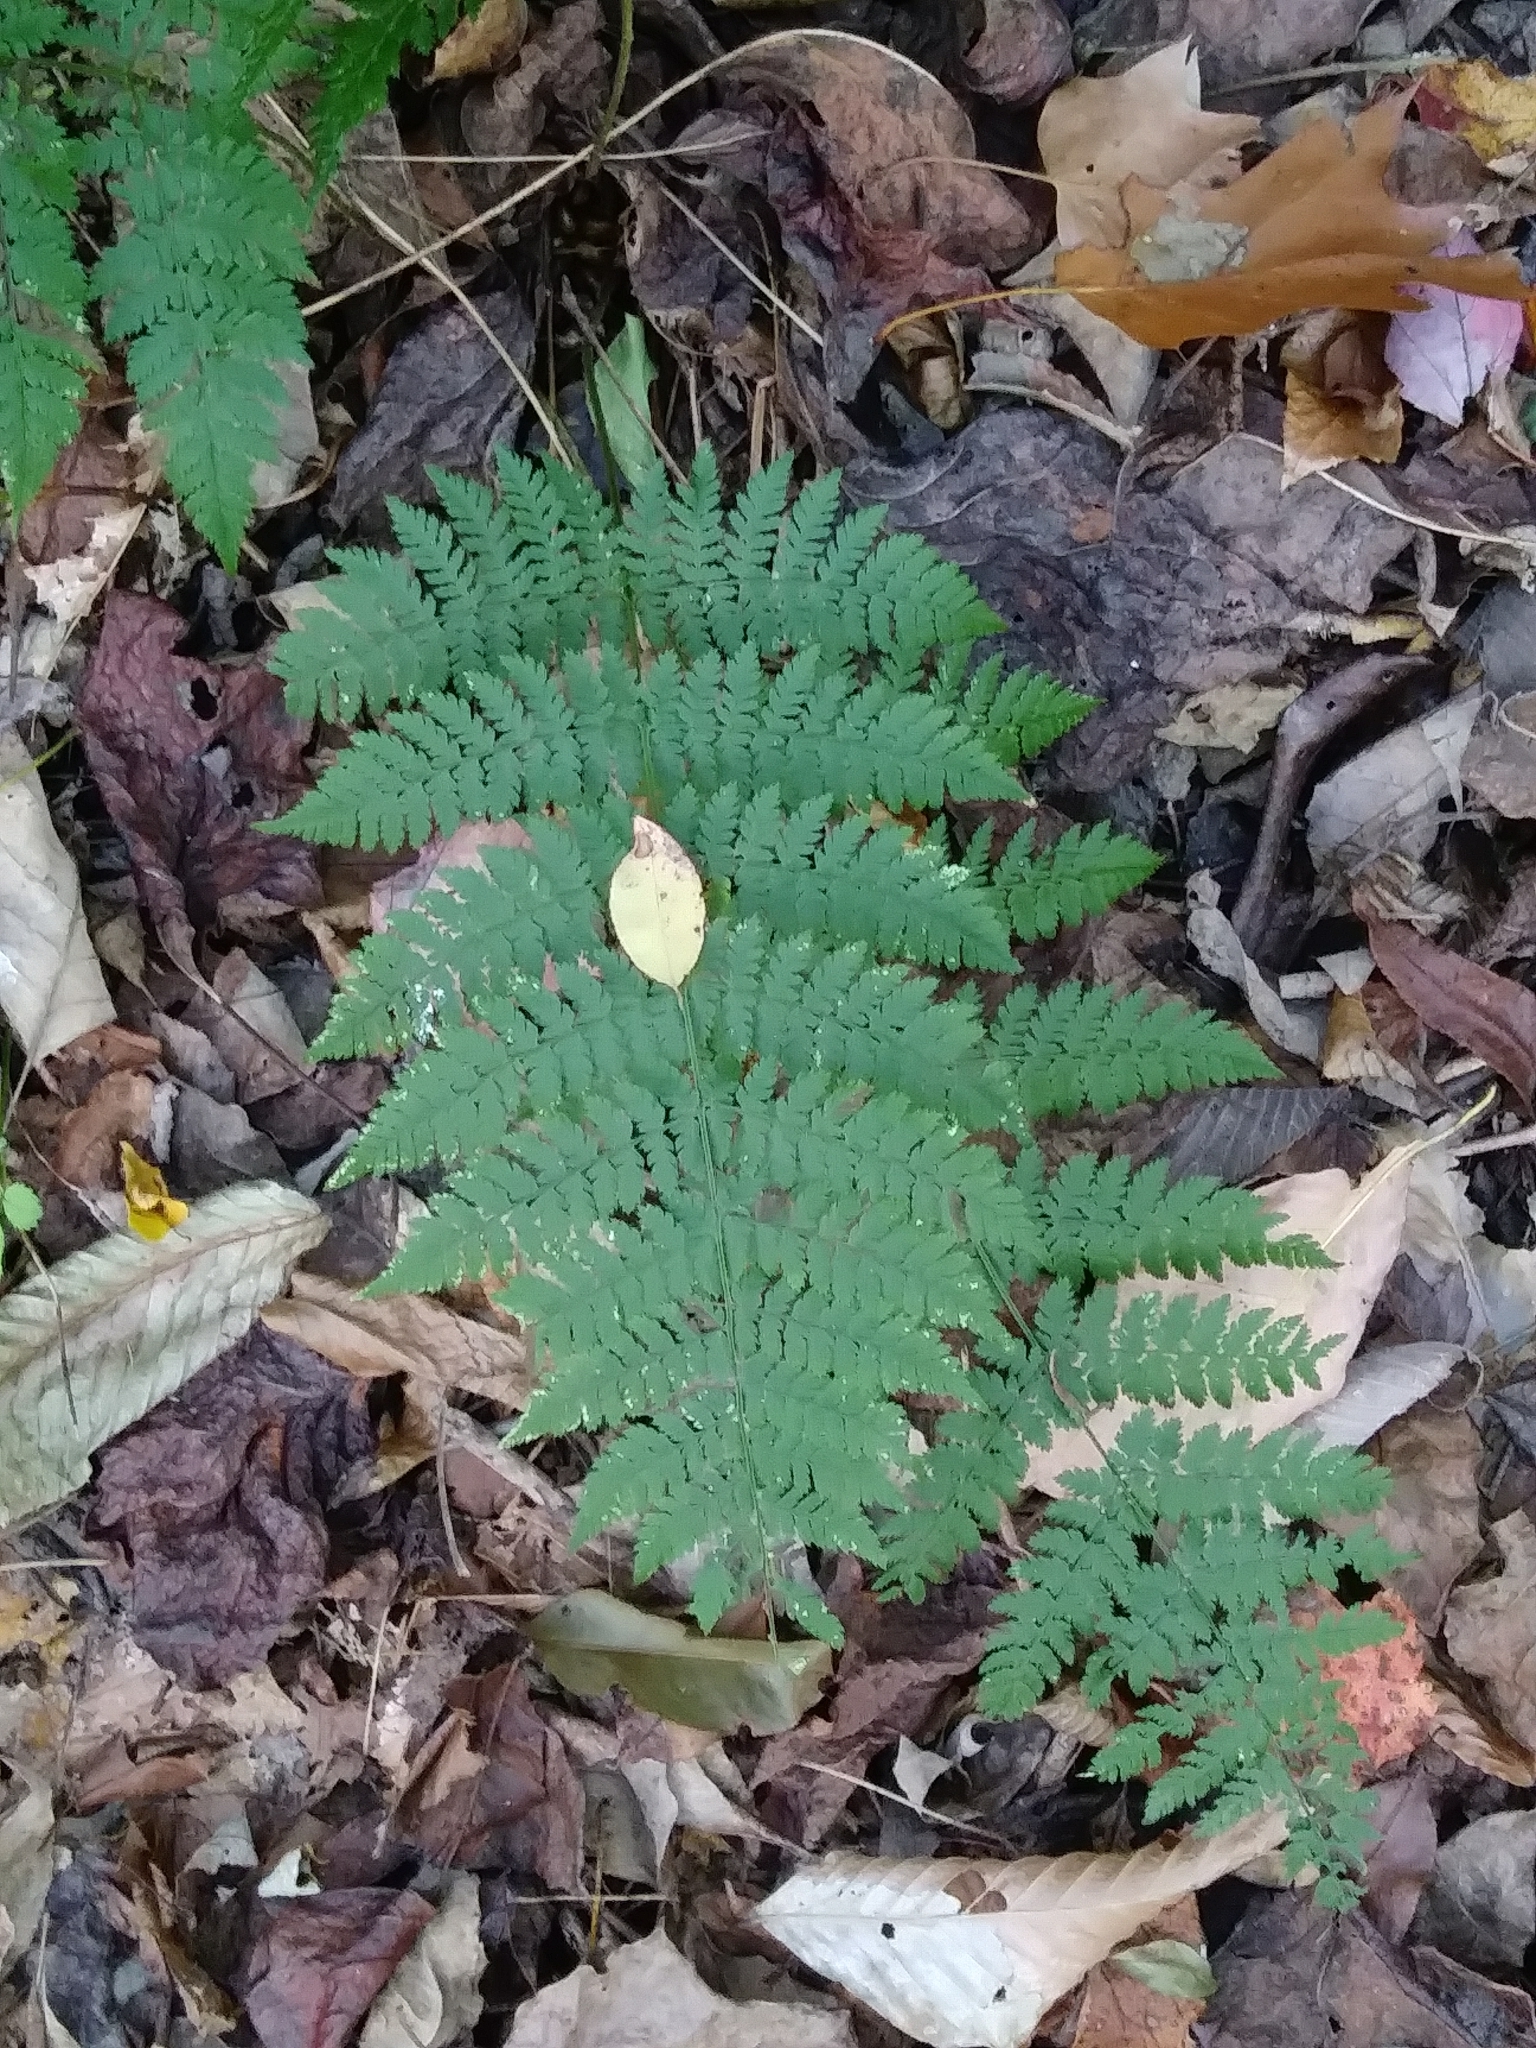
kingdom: Plantae
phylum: Tracheophyta
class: Polypodiopsida
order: Polypodiales
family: Dryopteridaceae
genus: Dryopteris
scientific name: Dryopteris intermedia
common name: Evergreen wood fern
